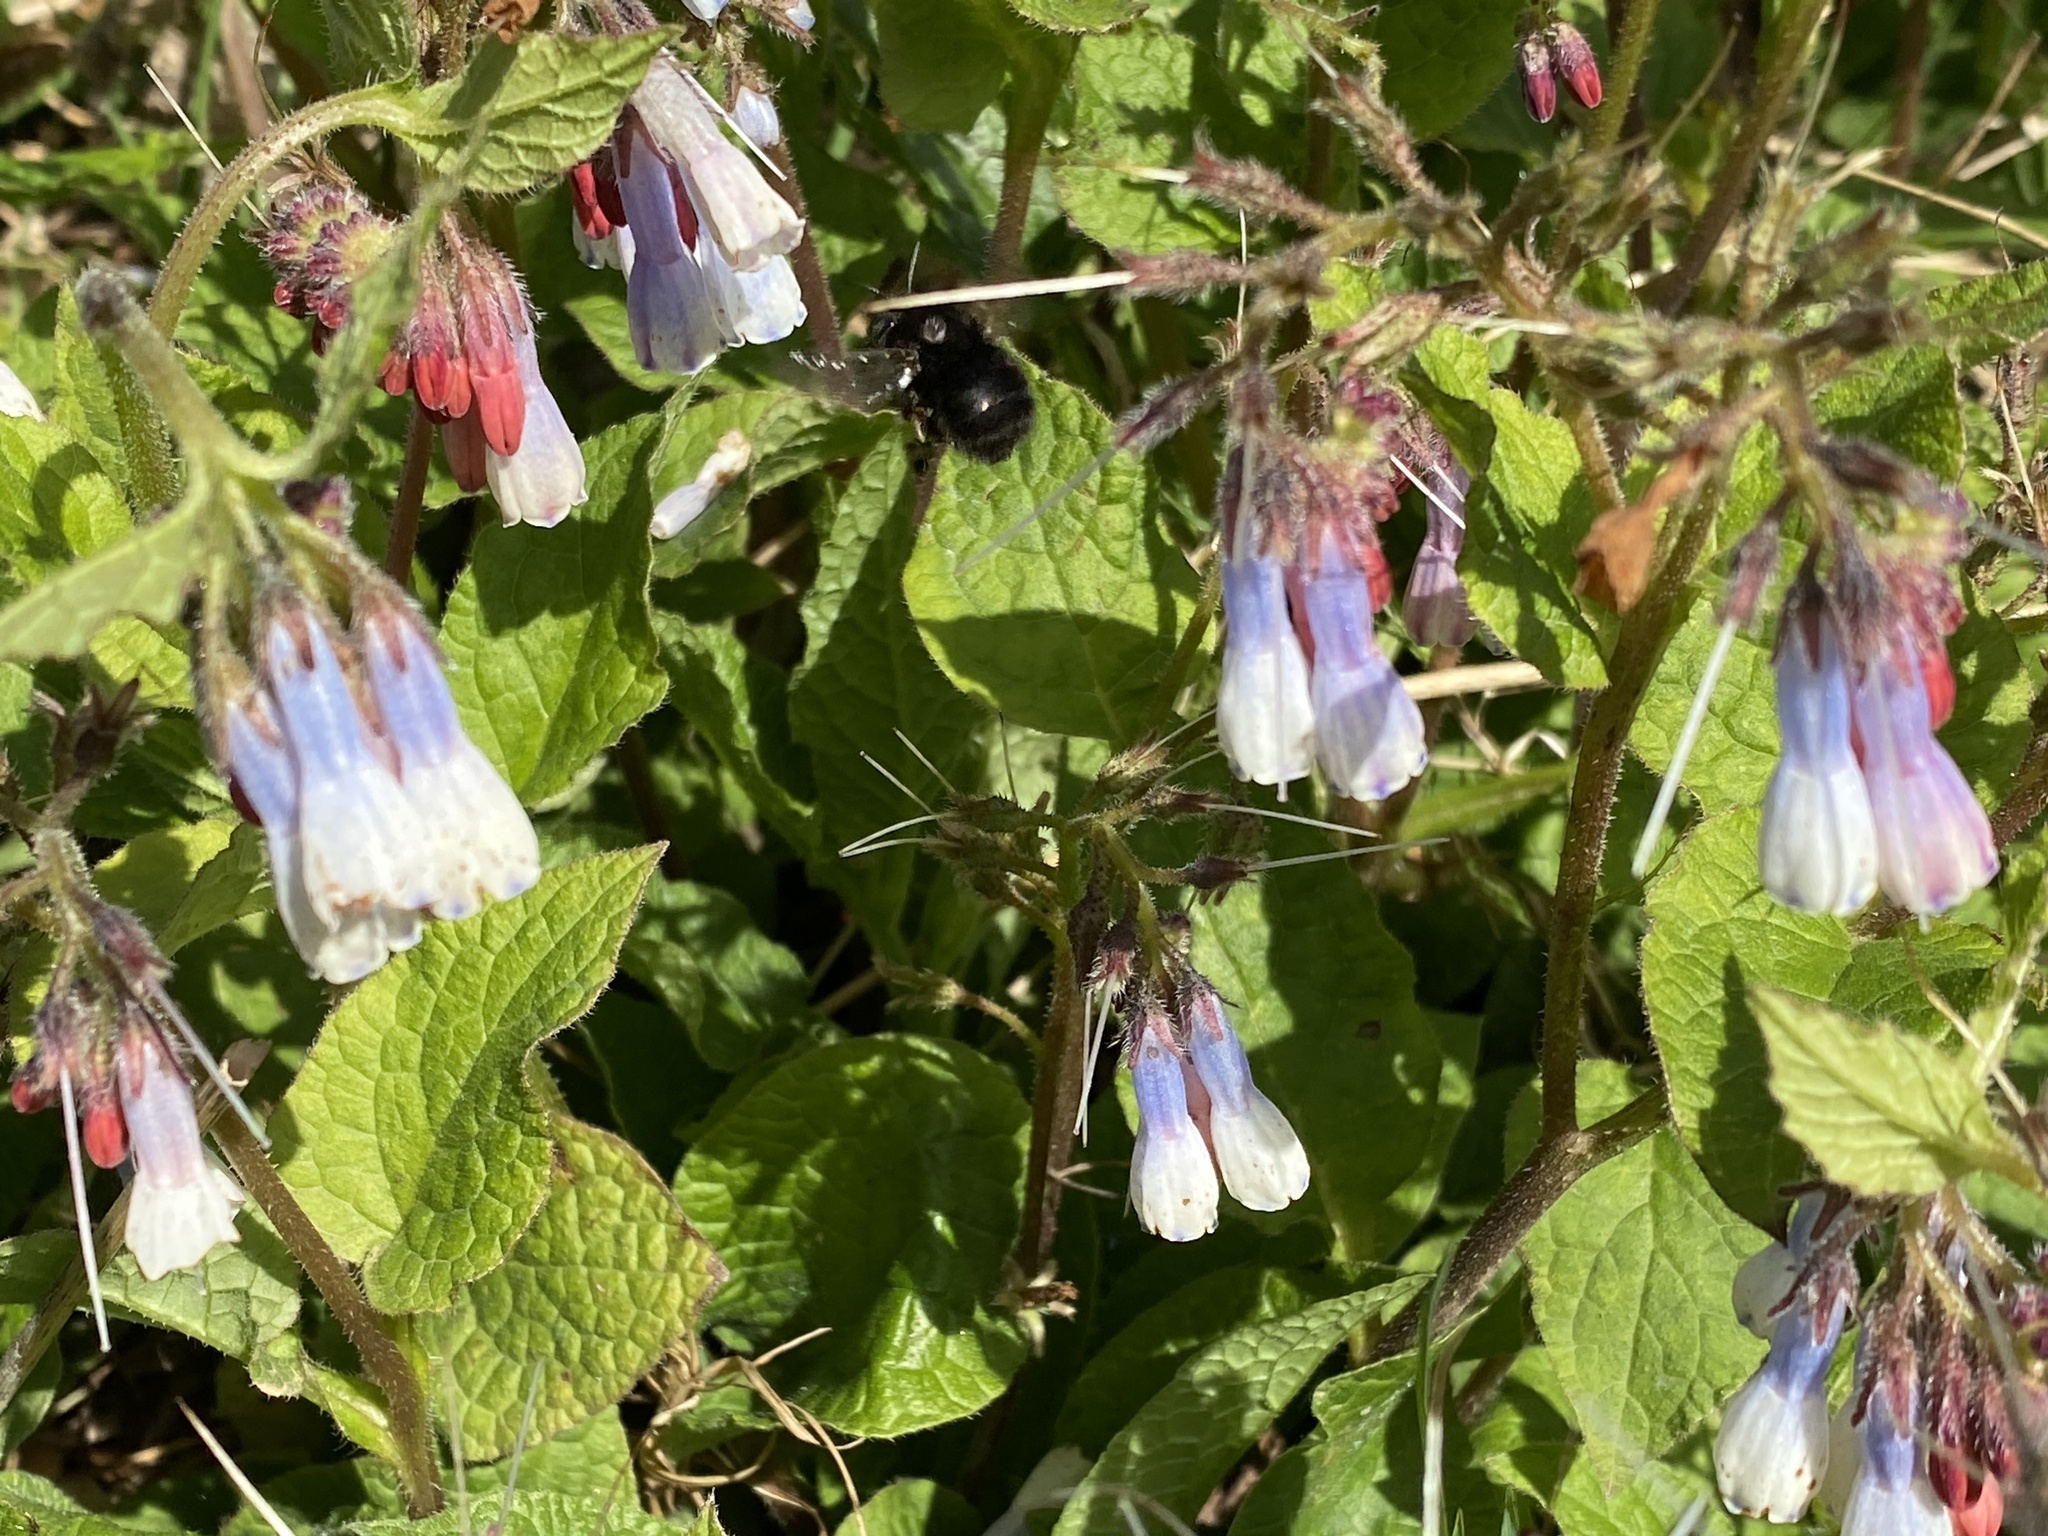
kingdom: Animalia
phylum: Arthropoda
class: Insecta
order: Hymenoptera
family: Apidae
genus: Anthophora
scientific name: Anthophora plumipes
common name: Hairy-footed flower bee
